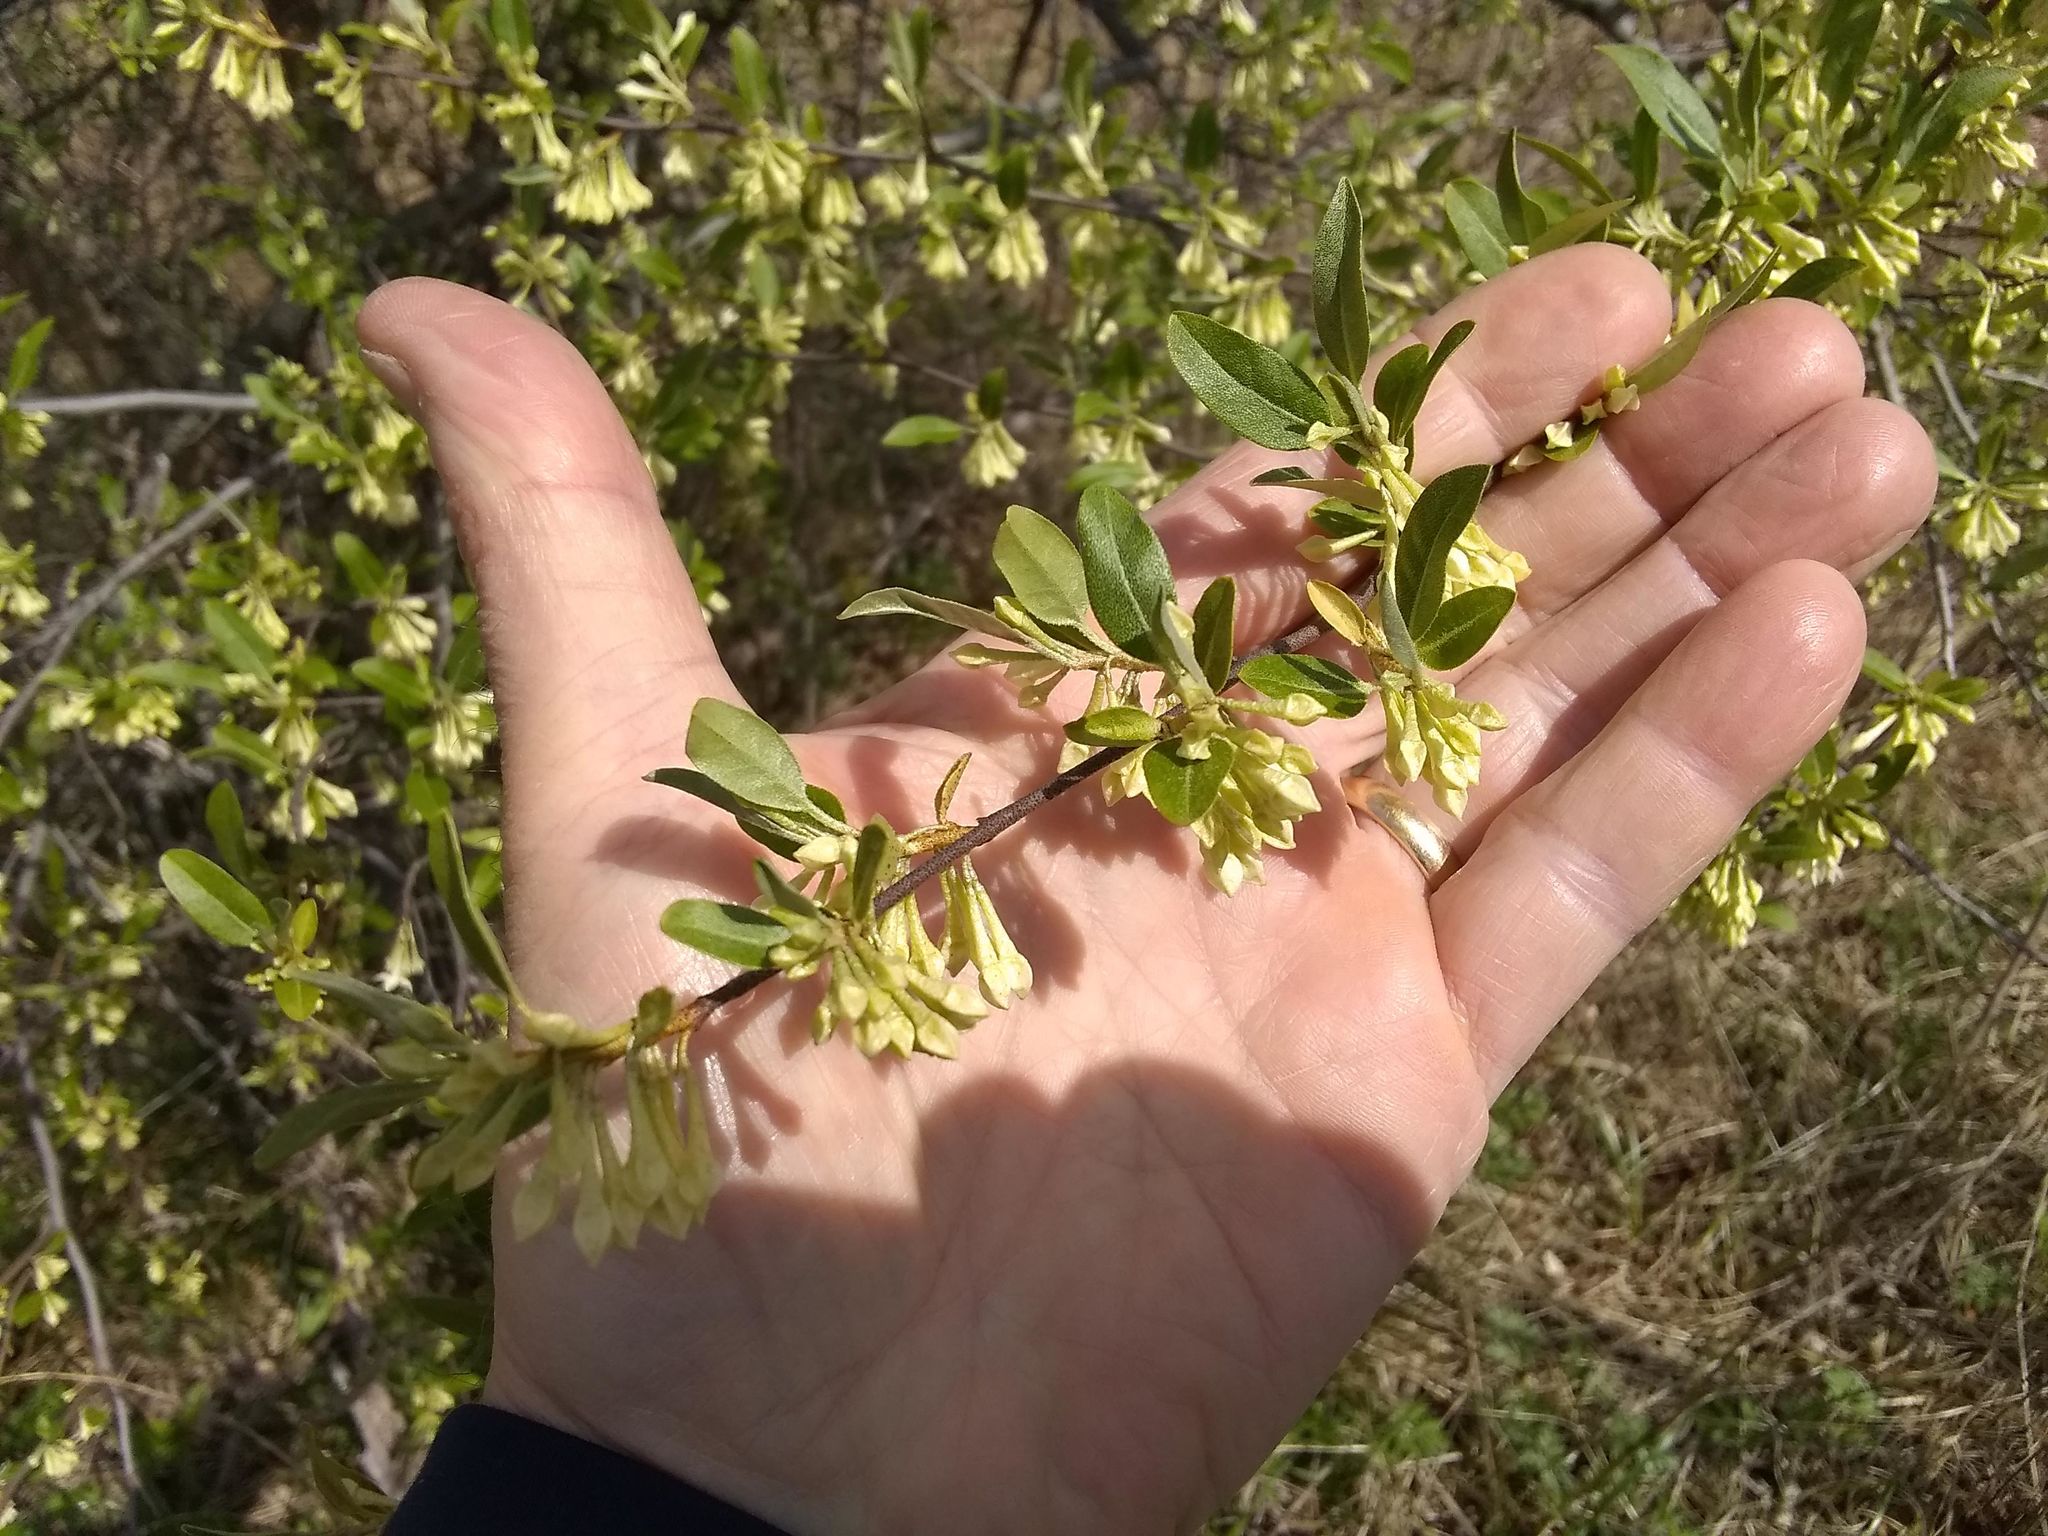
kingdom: Plantae
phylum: Tracheophyta
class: Magnoliopsida
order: Rosales
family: Elaeagnaceae
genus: Elaeagnus
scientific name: Elaeagnus umbellata
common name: Autumn olive
